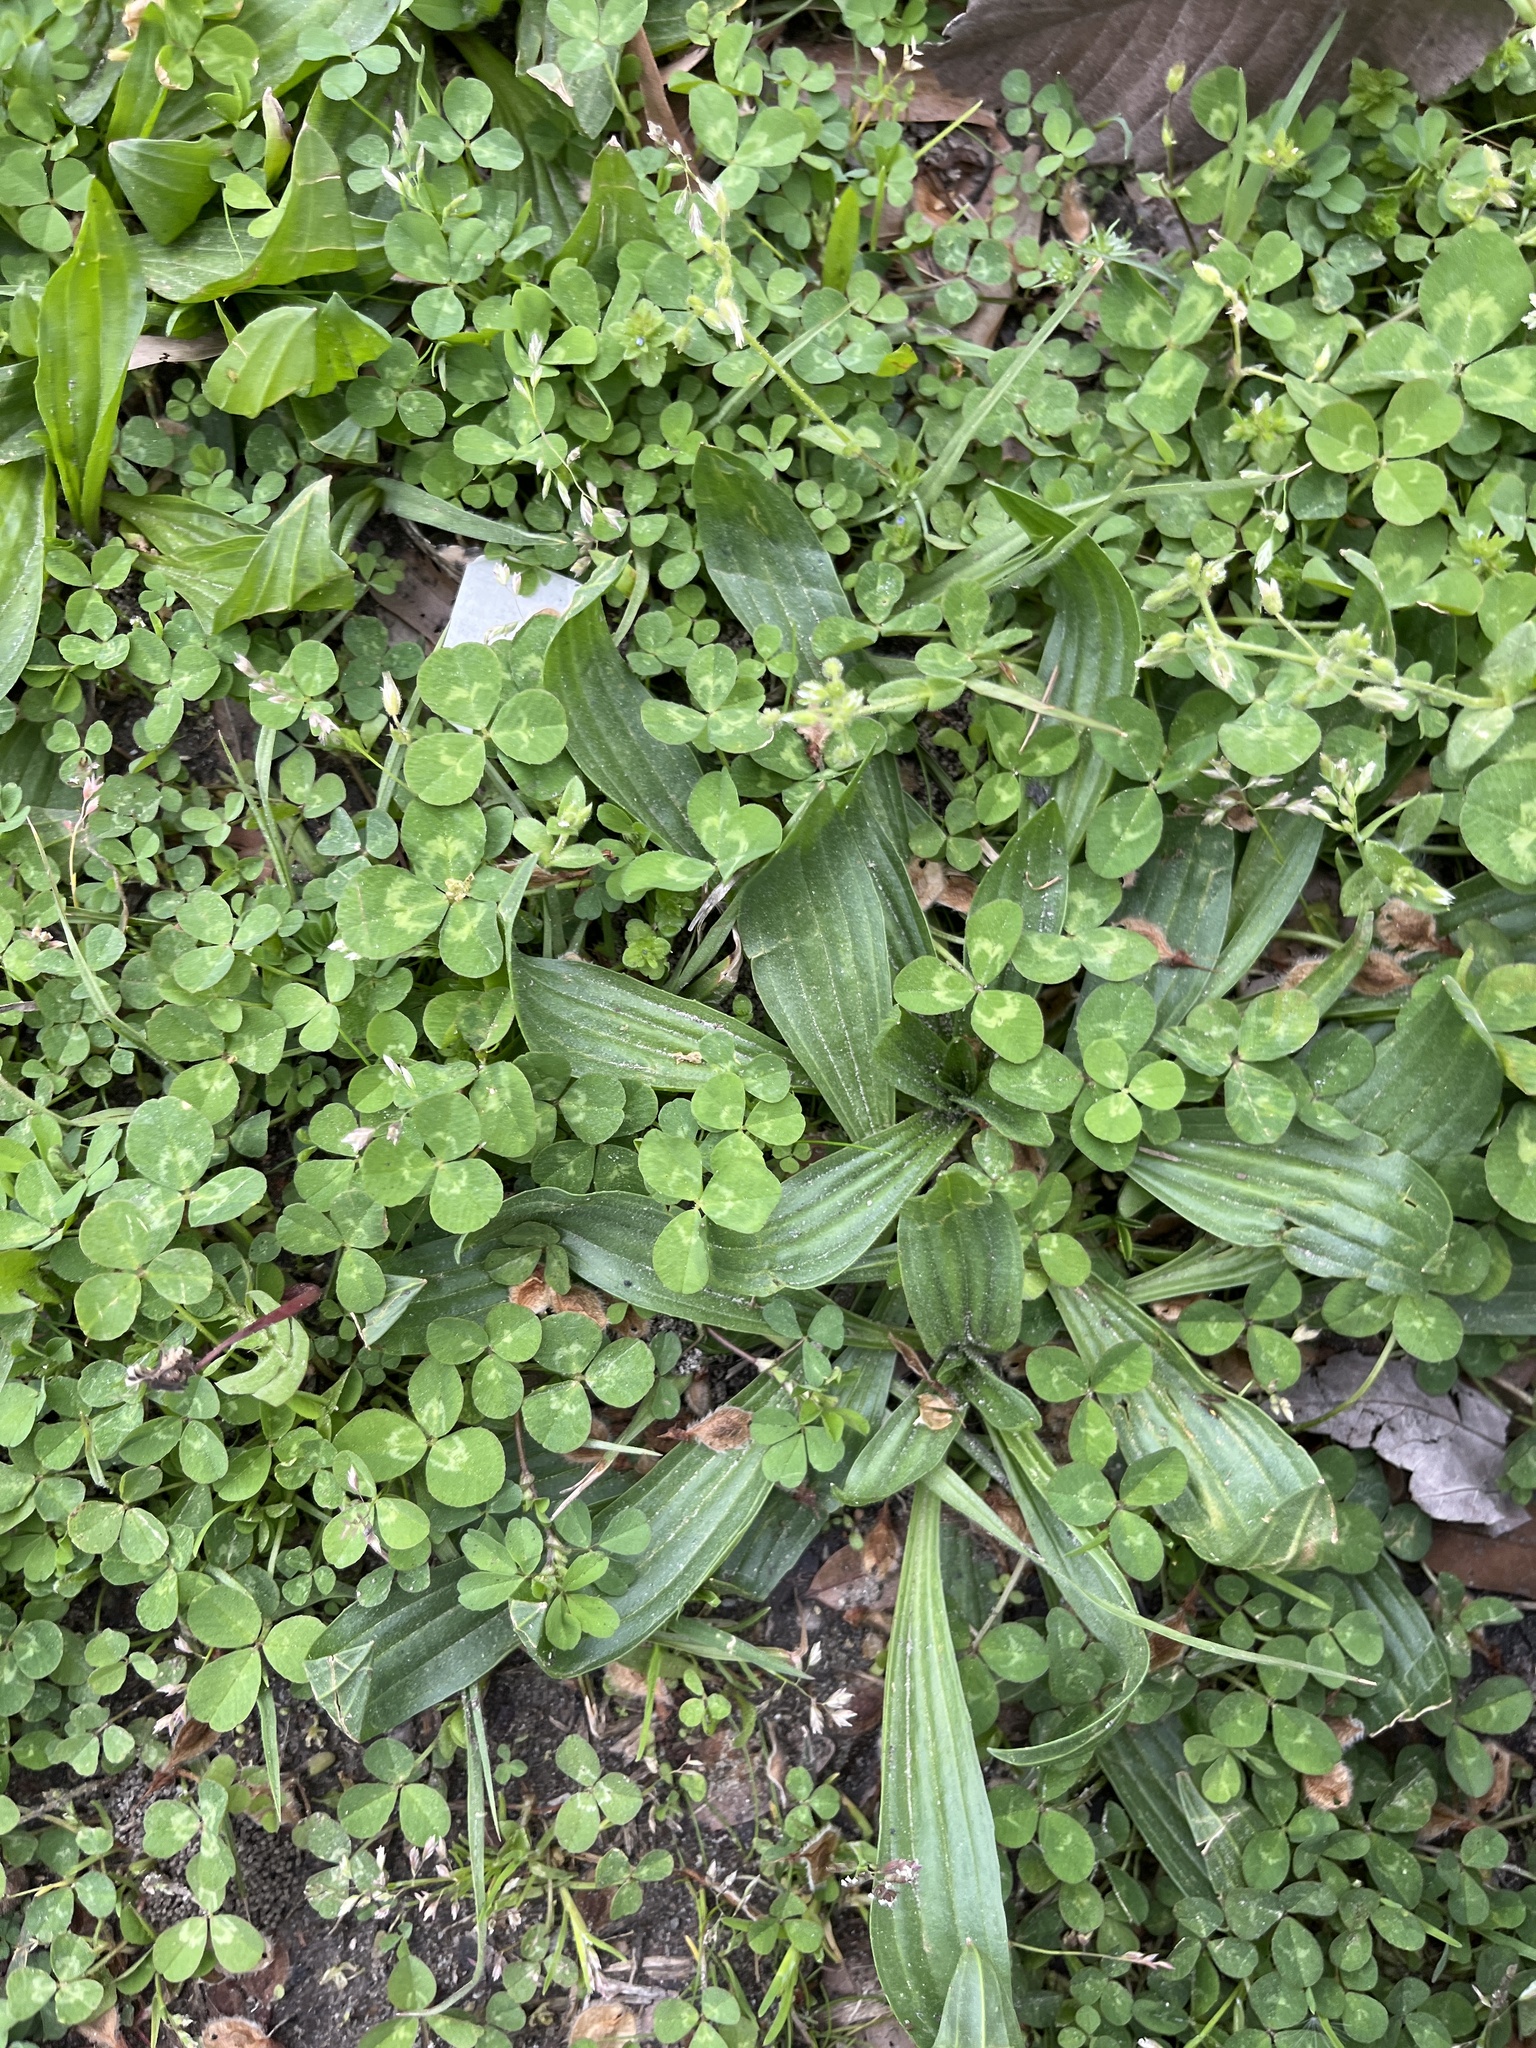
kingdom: Plantae
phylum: Tracheophyta
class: Magnoliopsida
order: Lamiales
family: Plantaginaceae
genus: Plantago
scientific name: Plantago lanceolata
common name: Ribwort plantain
